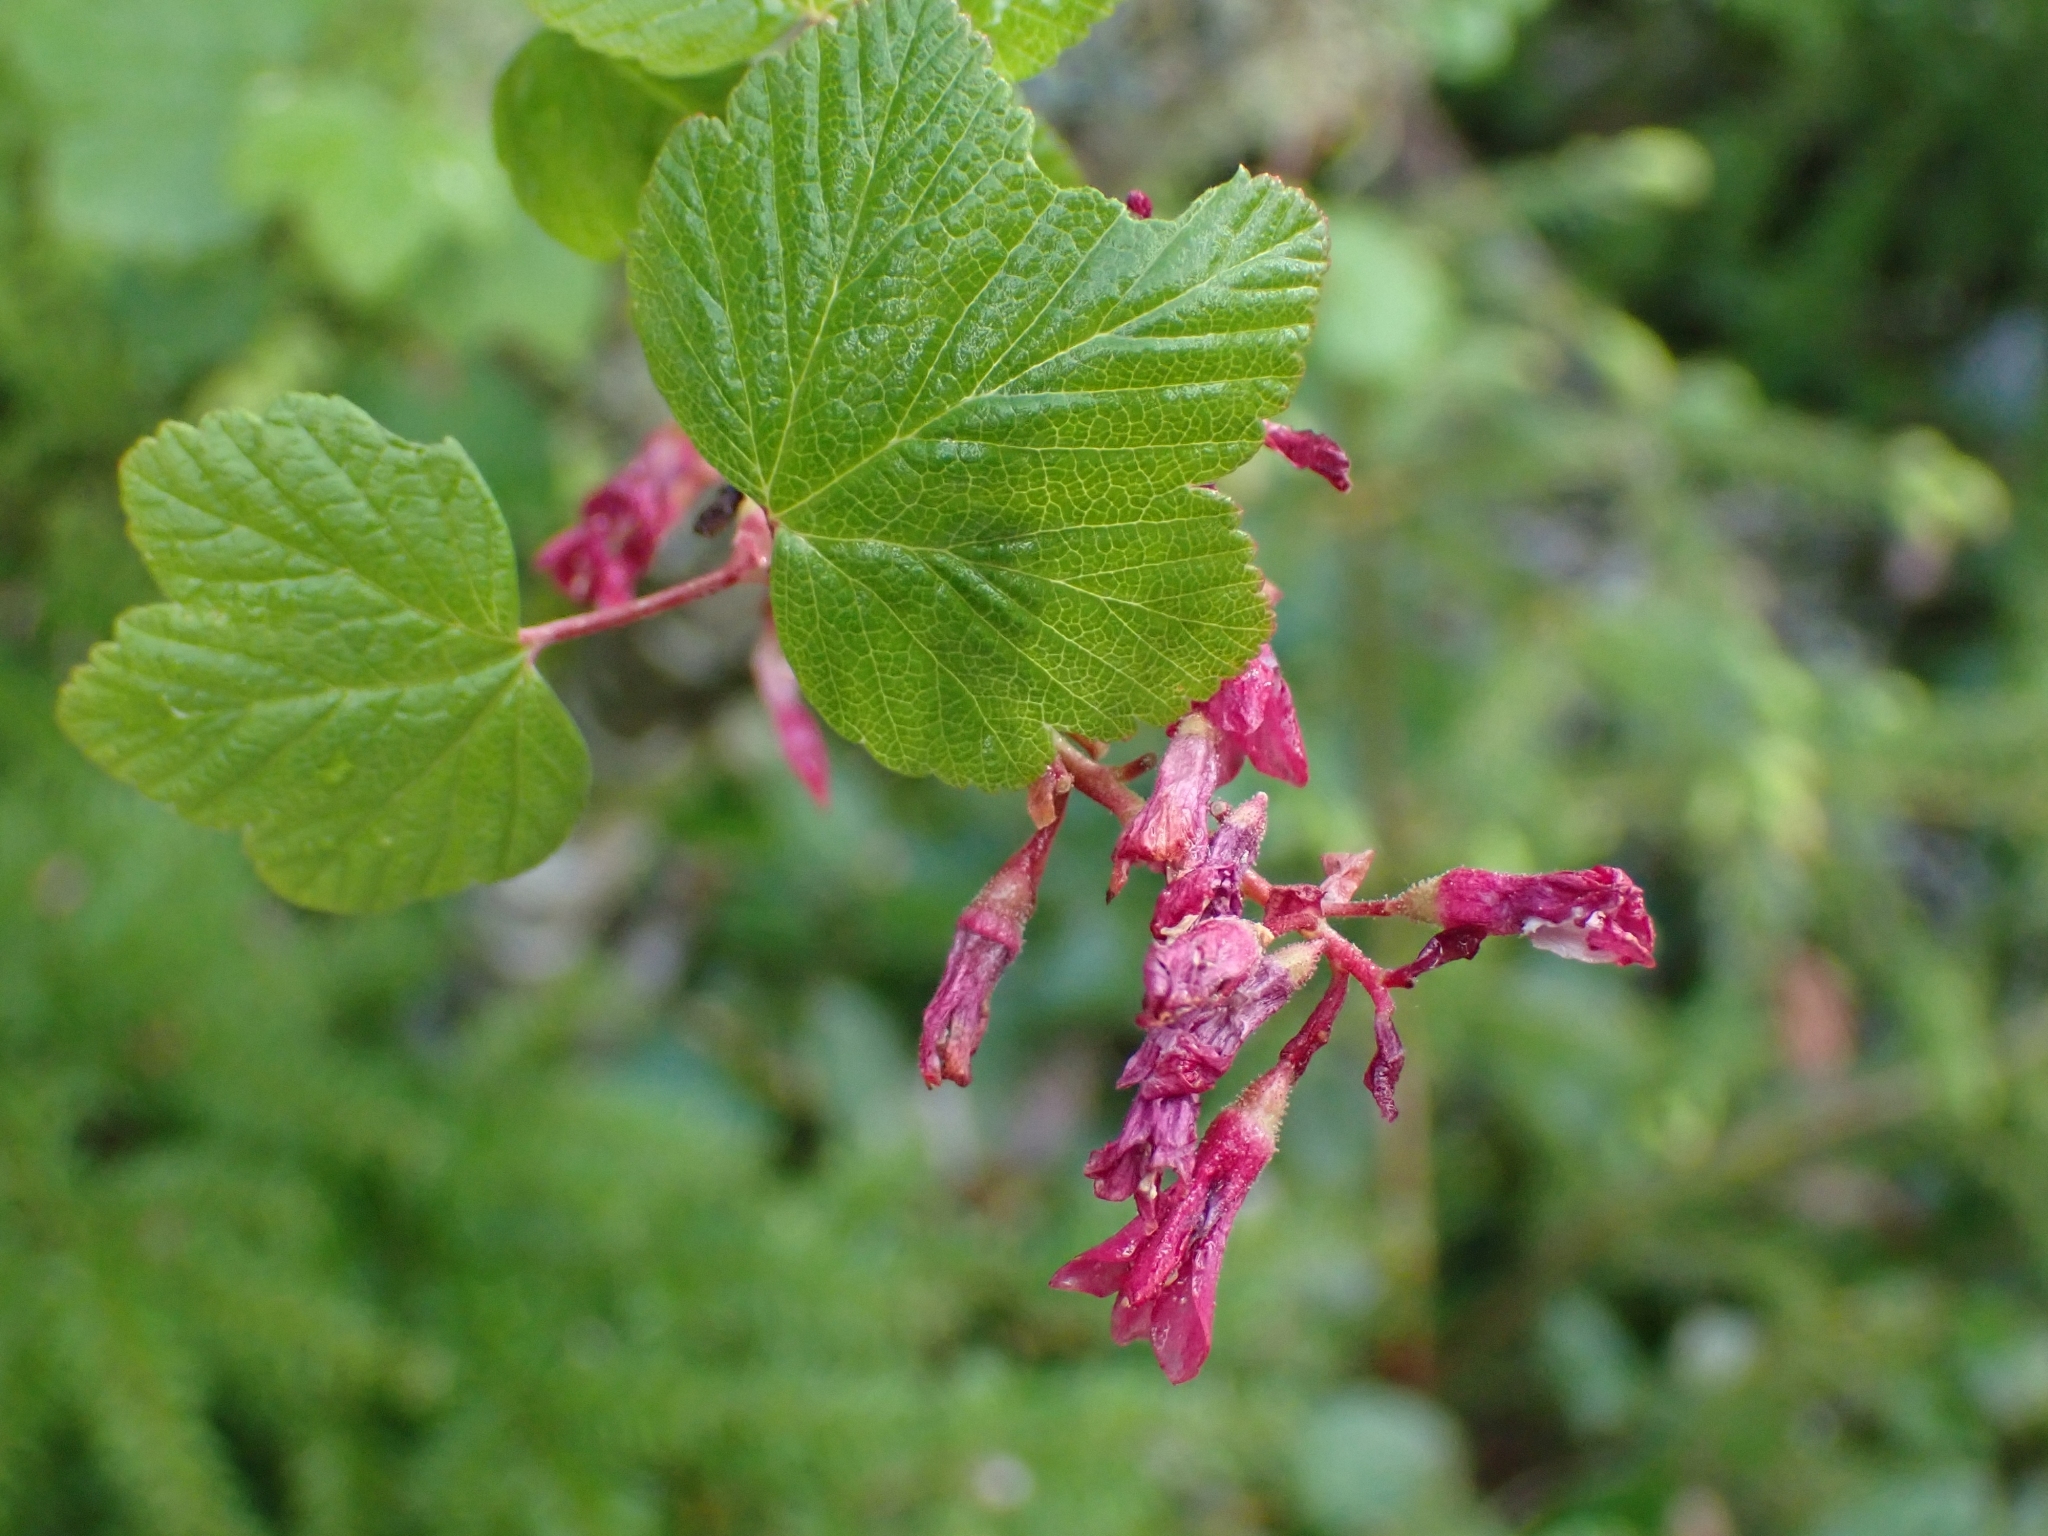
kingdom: Plantae
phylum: Tracheophyta
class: Magnoliopsida
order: Saxifragales
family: Grossulariaceae
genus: Ribes
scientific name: Ribes sanguineum
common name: Flowering currant
